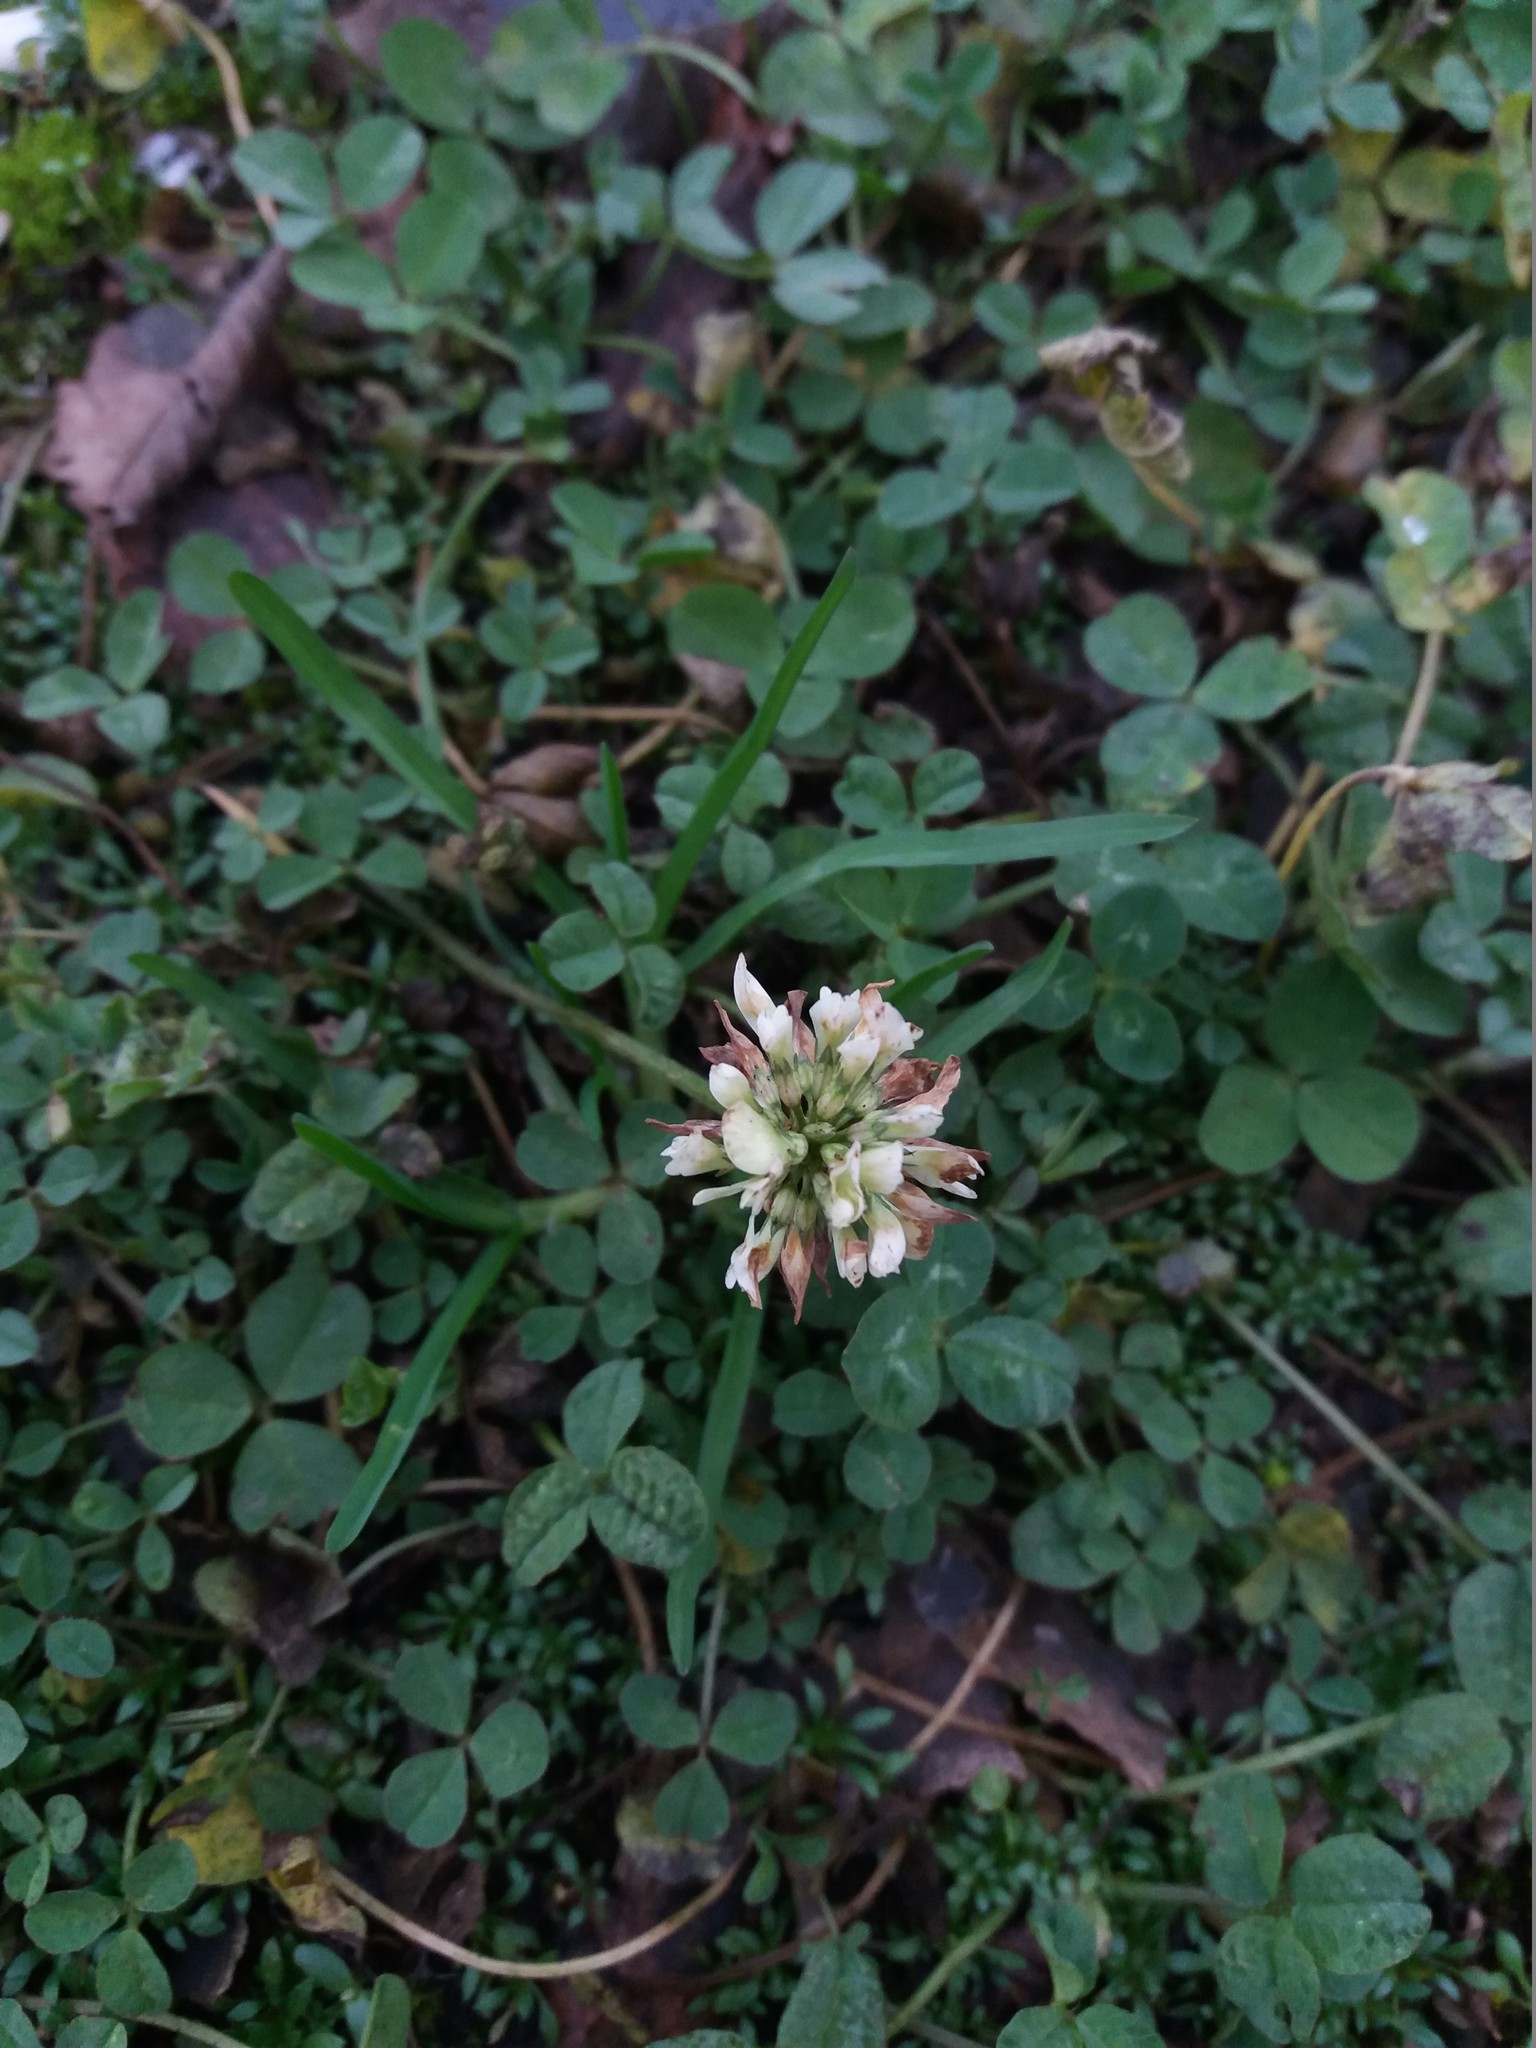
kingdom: Plantae
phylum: Tracheophyta
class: Magnoliopsida
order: Fabales
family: Fabaceae
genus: Trifolium
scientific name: Trifolium repens
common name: White clover
